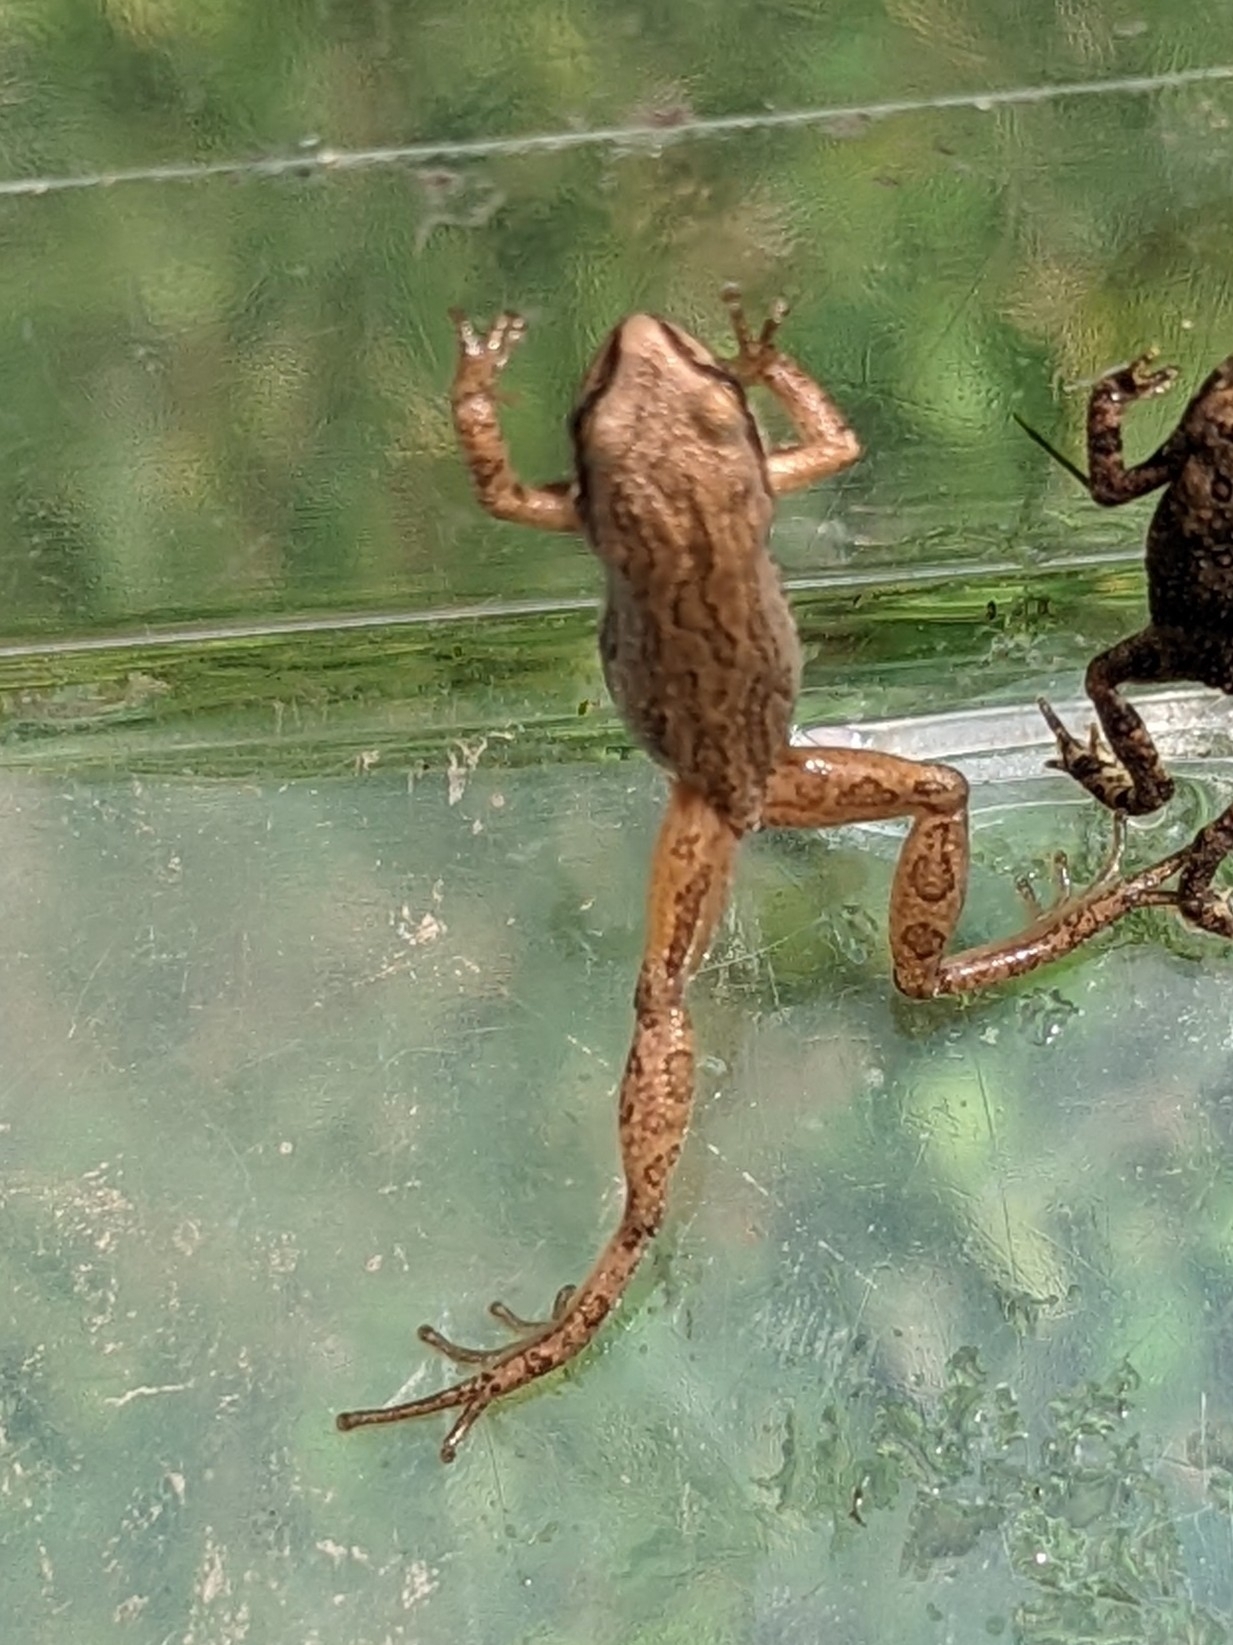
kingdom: Animalia
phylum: Chordata
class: Amphibia
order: Anura
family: Hylidae
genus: Pseudacris
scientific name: Pseudacris triseriata
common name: Western chorus frog
